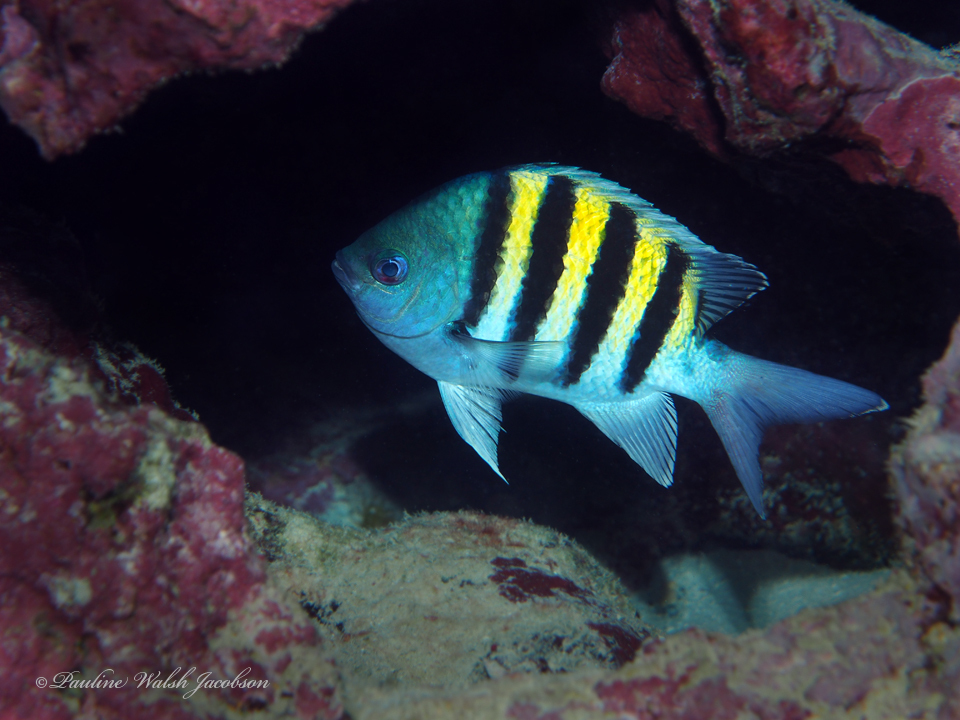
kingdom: Animalia
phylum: Chordata
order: Perciformes
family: Pomacentridae
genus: Abudefduf
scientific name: Abudefduf saxatilis
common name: Sergeant major
